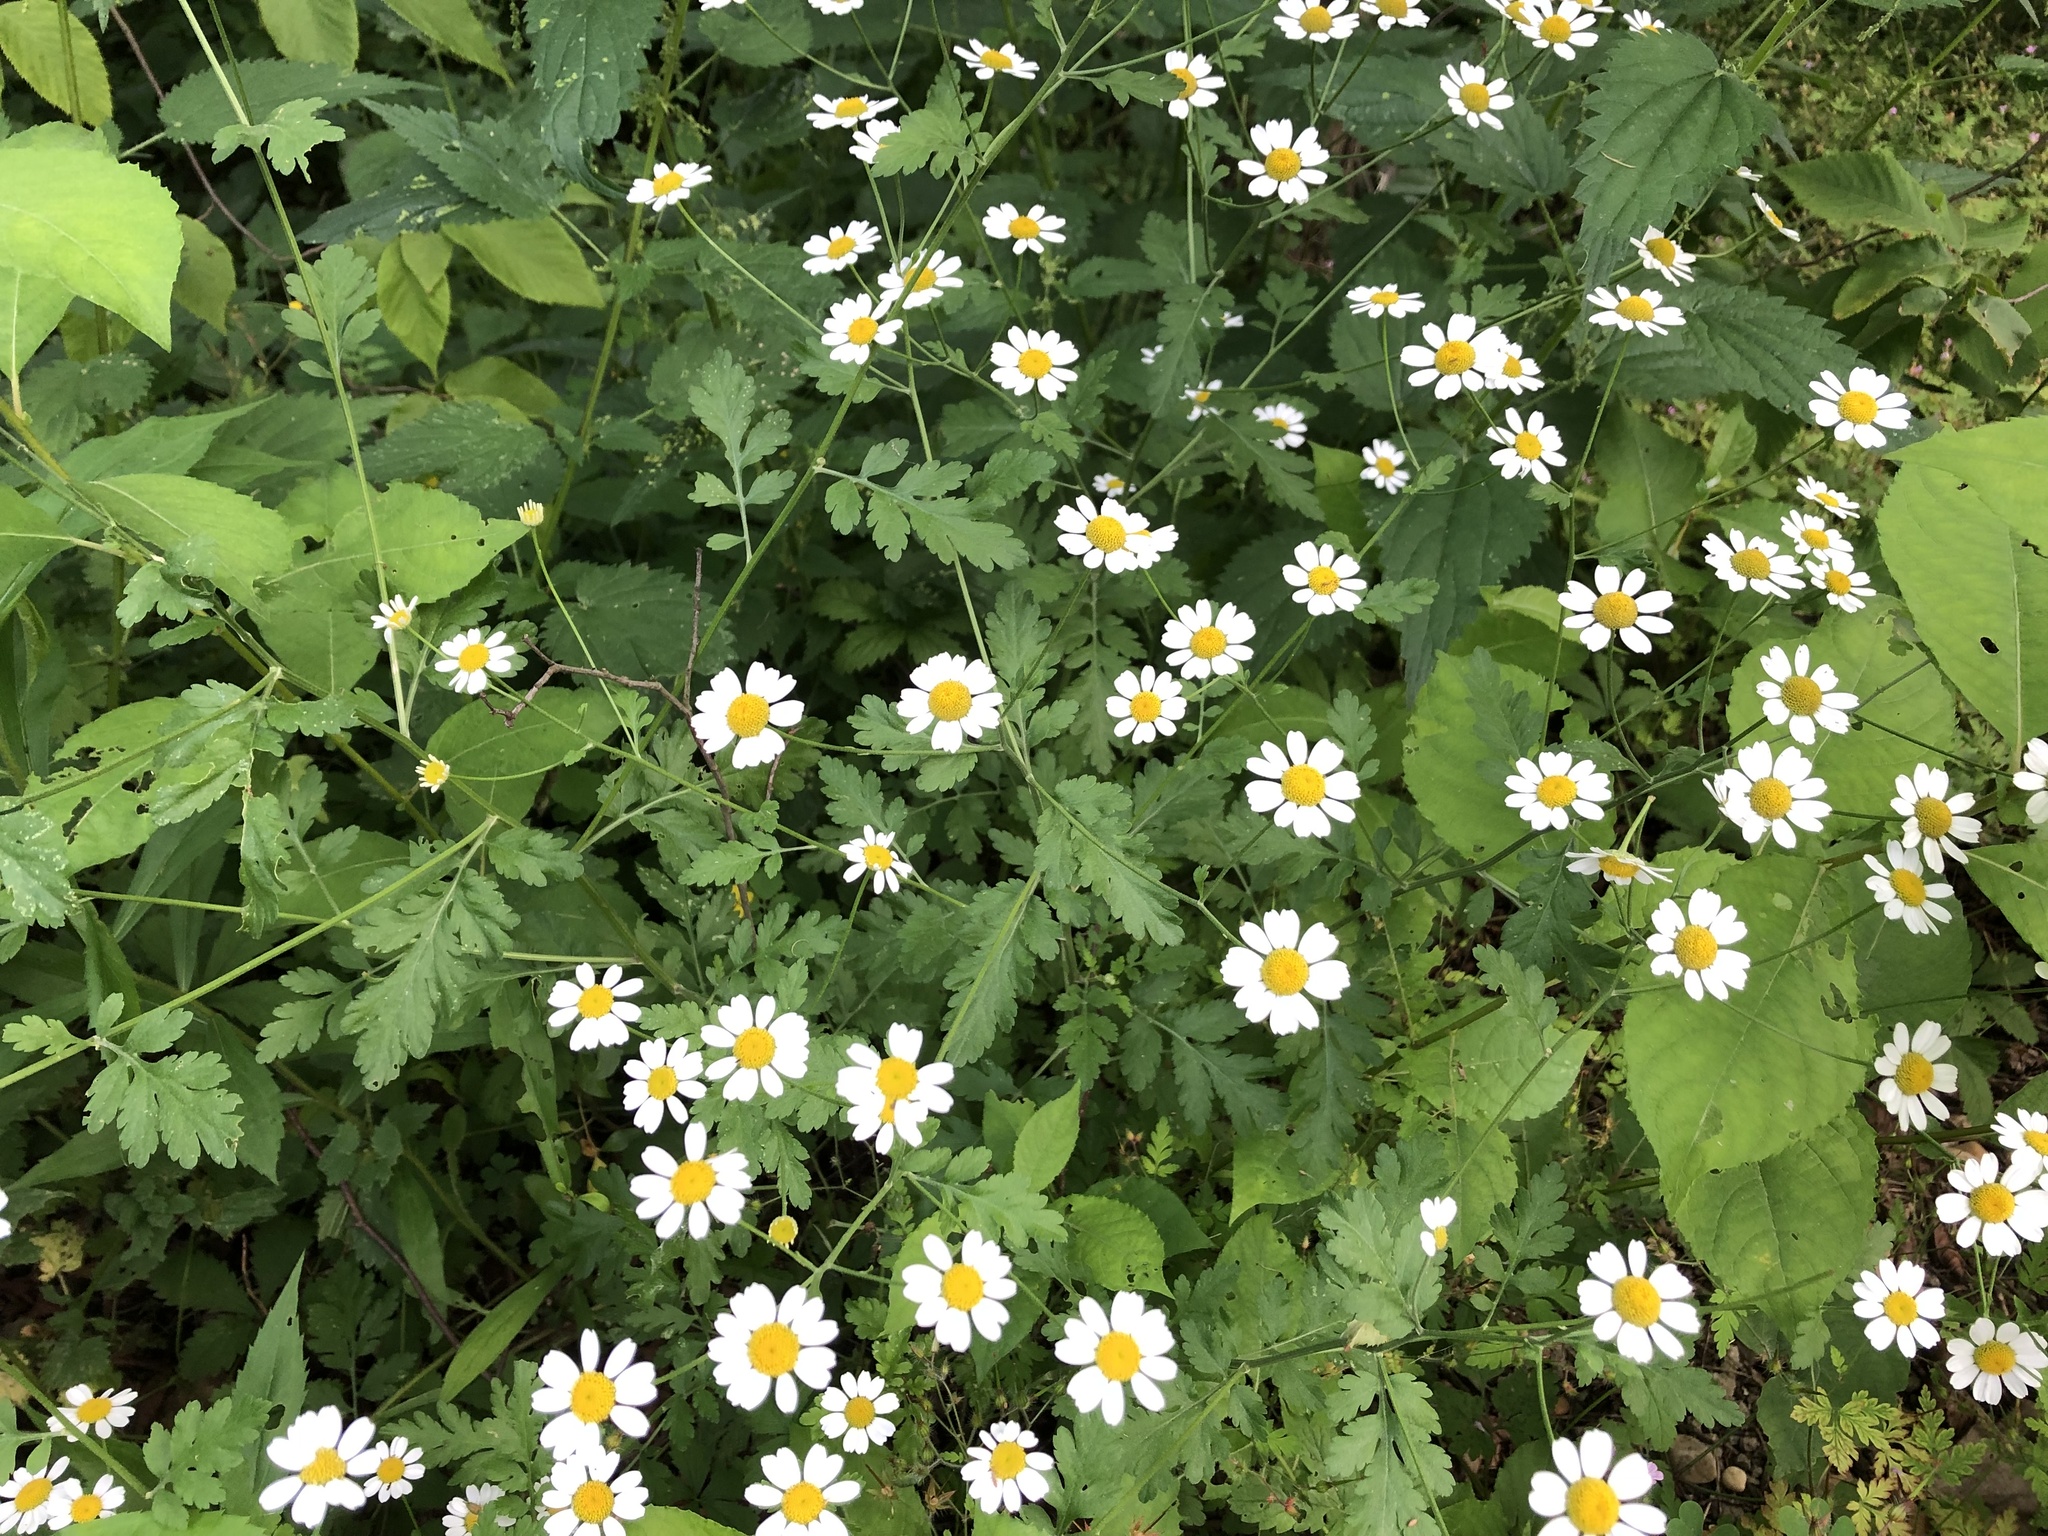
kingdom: Plantae
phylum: Tracheophyta
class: Magnoliopsida
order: Asterales
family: Asteraceae
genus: Tanacetum
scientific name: Tanacetum parthenium
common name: Feverfew
